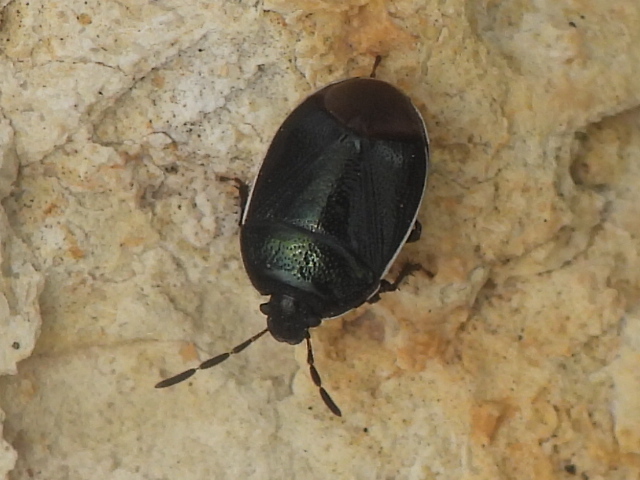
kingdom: Animalia
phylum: Arthropoda
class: Insecta
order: Hemiptera
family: Cydnidae
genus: Sehirus
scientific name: Sehirus cinctus
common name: White-margined burrower bug
